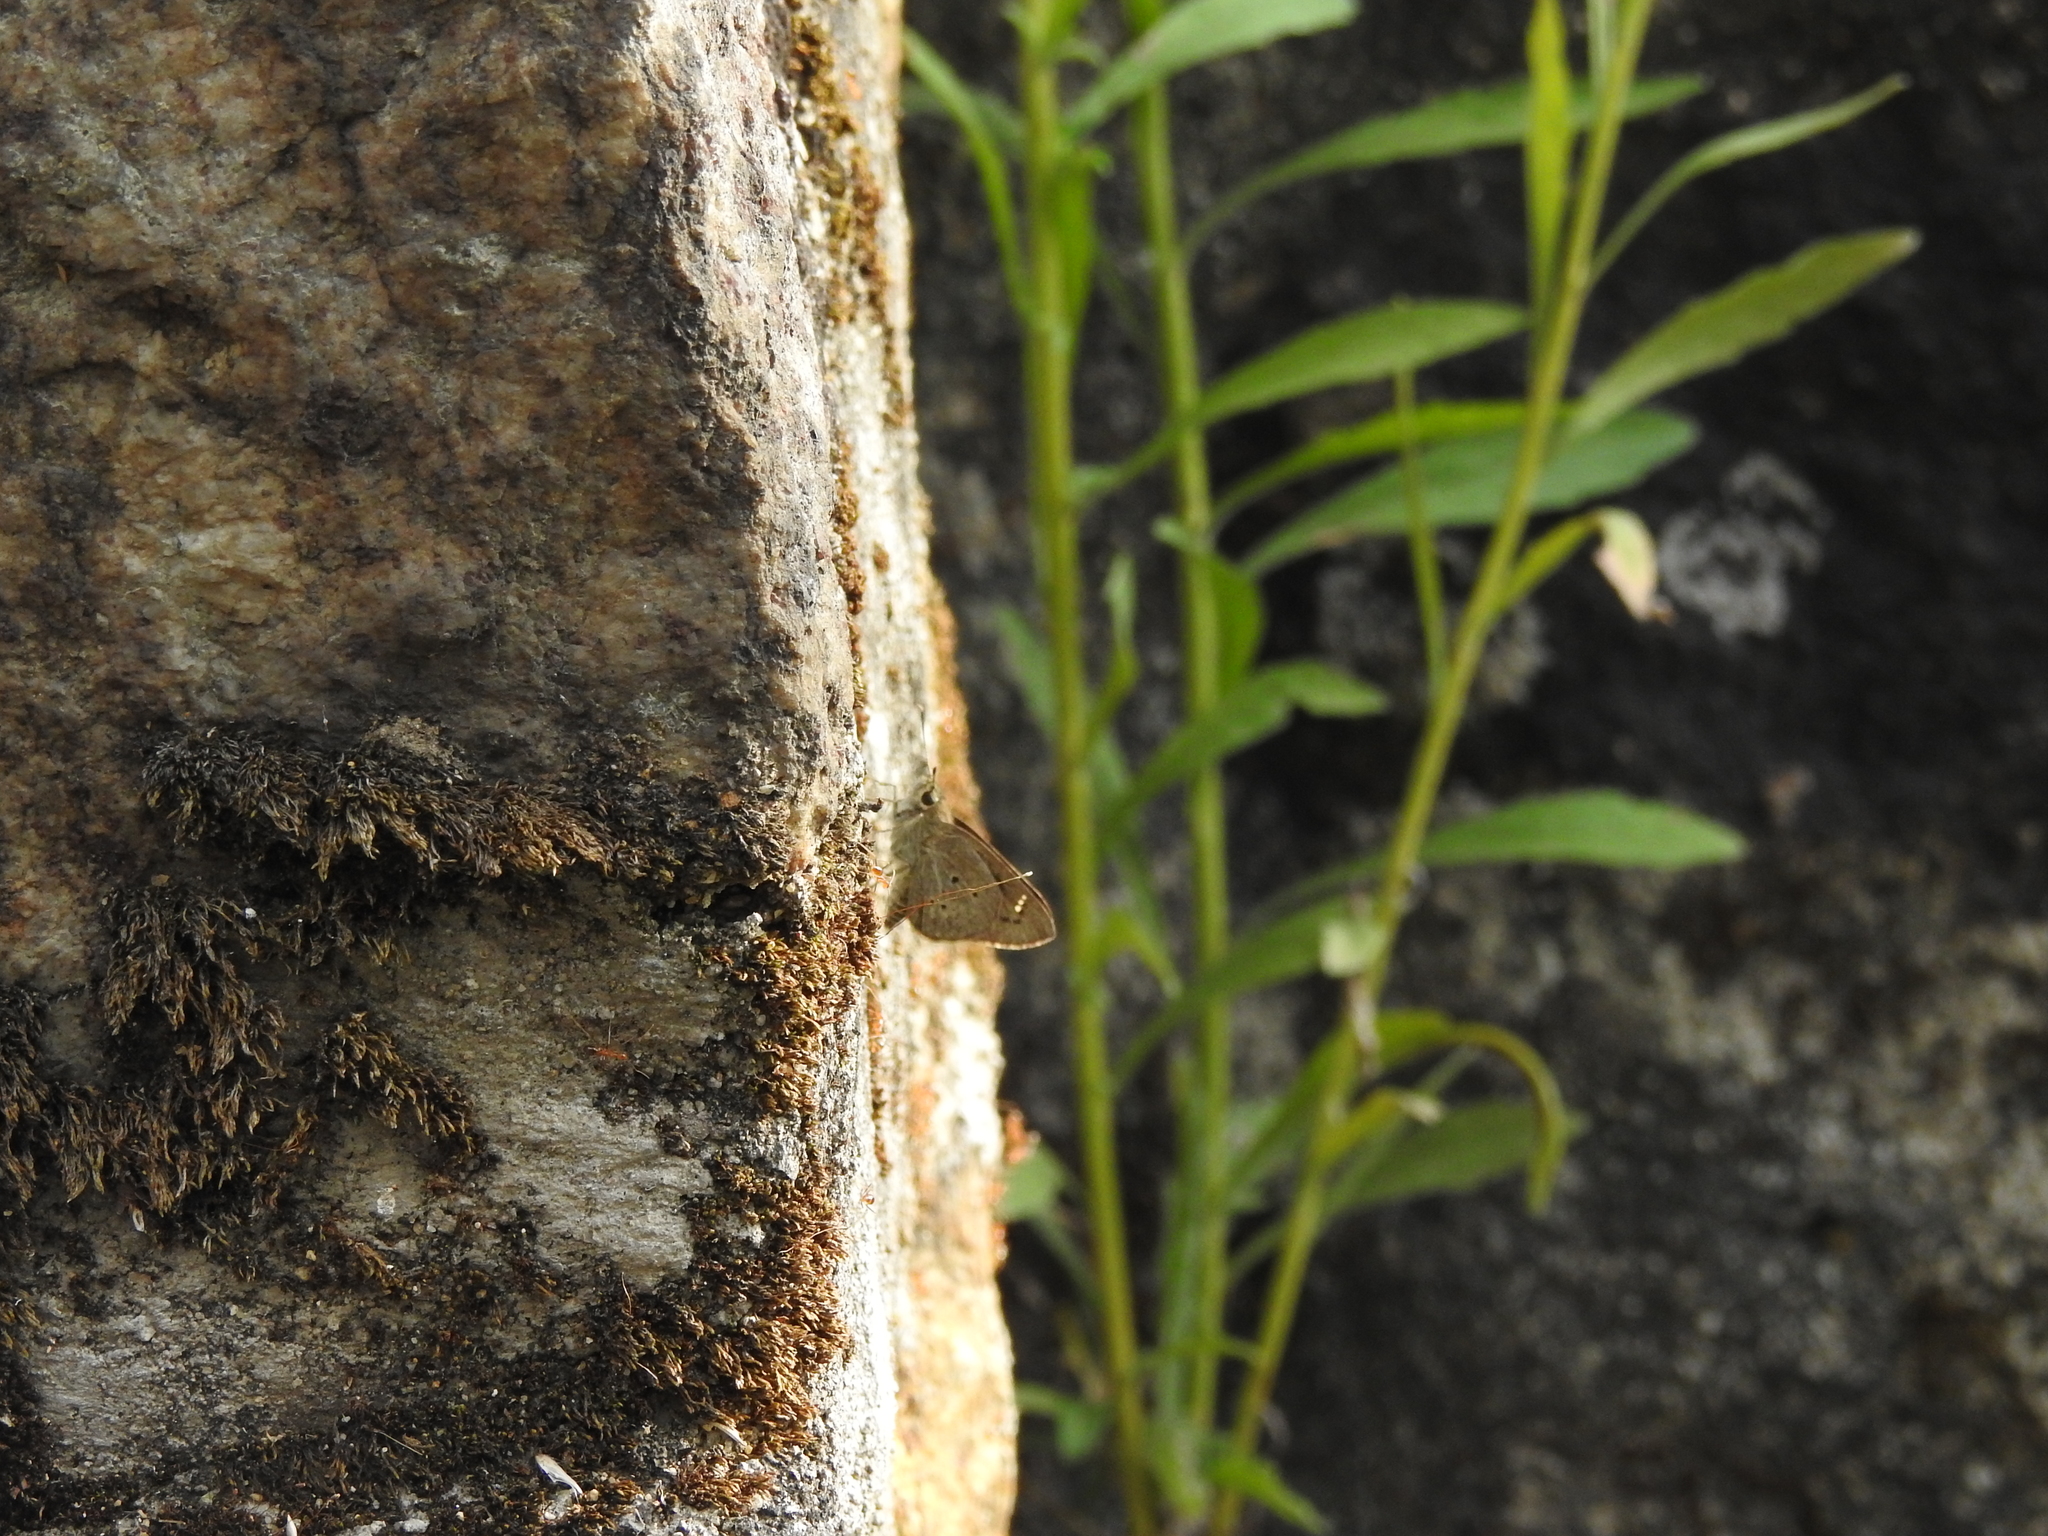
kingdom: Animalia
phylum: Arthropoda
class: Insecta
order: Lepidoptera
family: Hesperiidae
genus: Suastus
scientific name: Suastus gremius
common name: Indian palm bob
